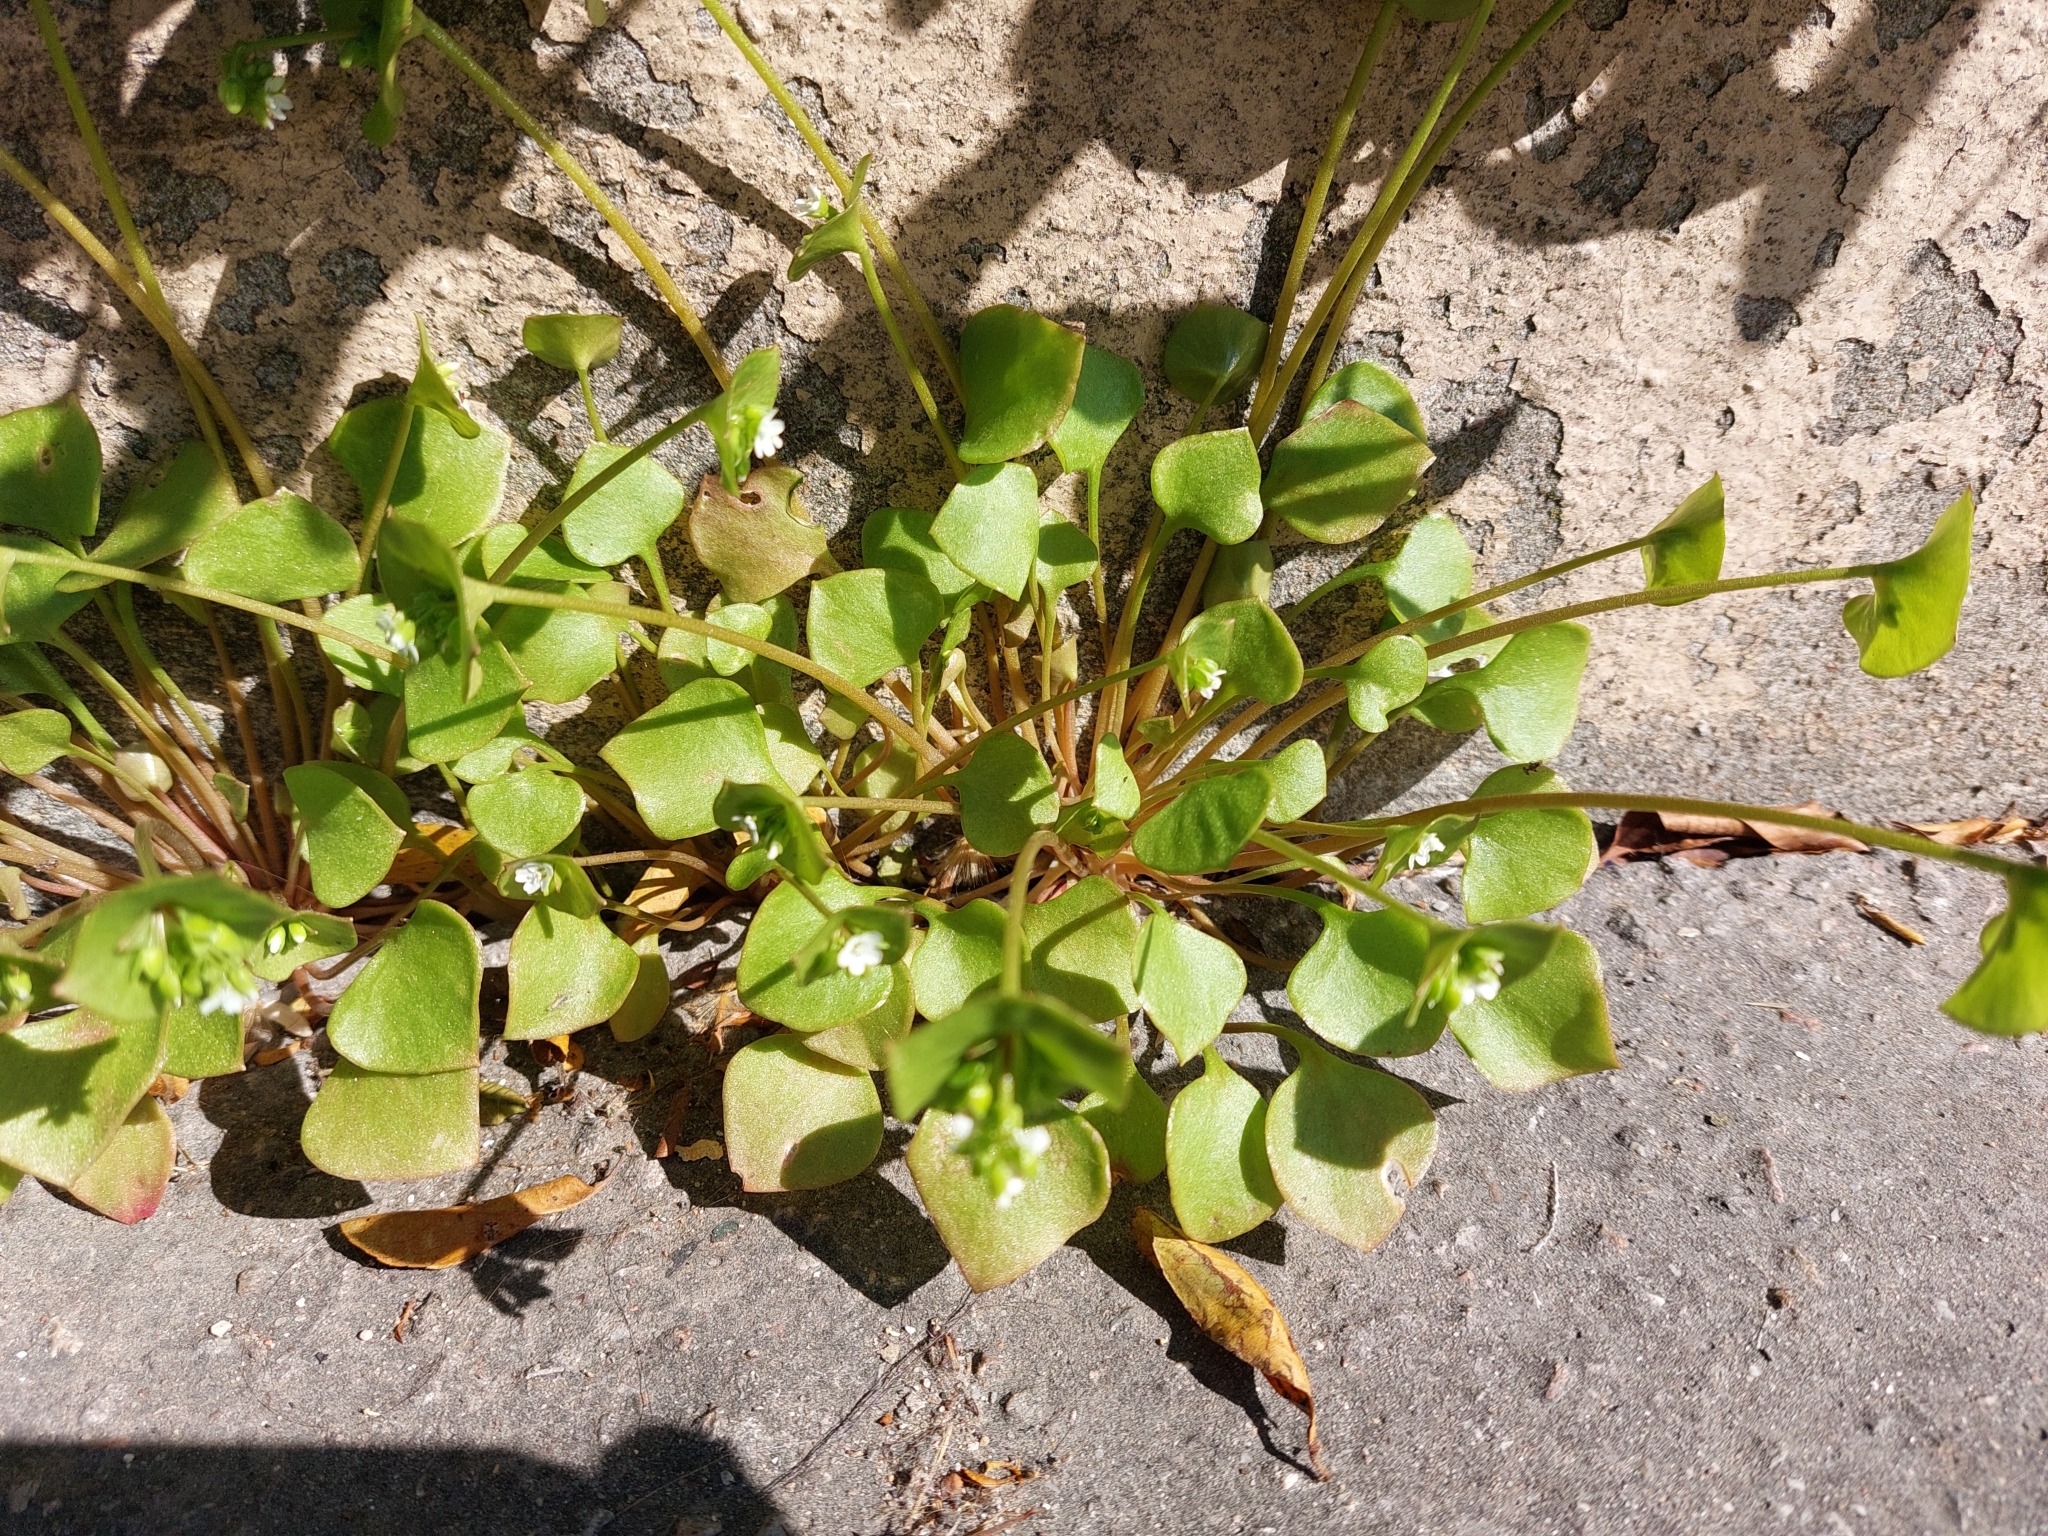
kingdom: Plantae
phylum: Tracheophyta
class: Magnoliopsida
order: Caryophyllales
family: Montiaceae
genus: Claytonia
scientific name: Claytonia perfoliata
